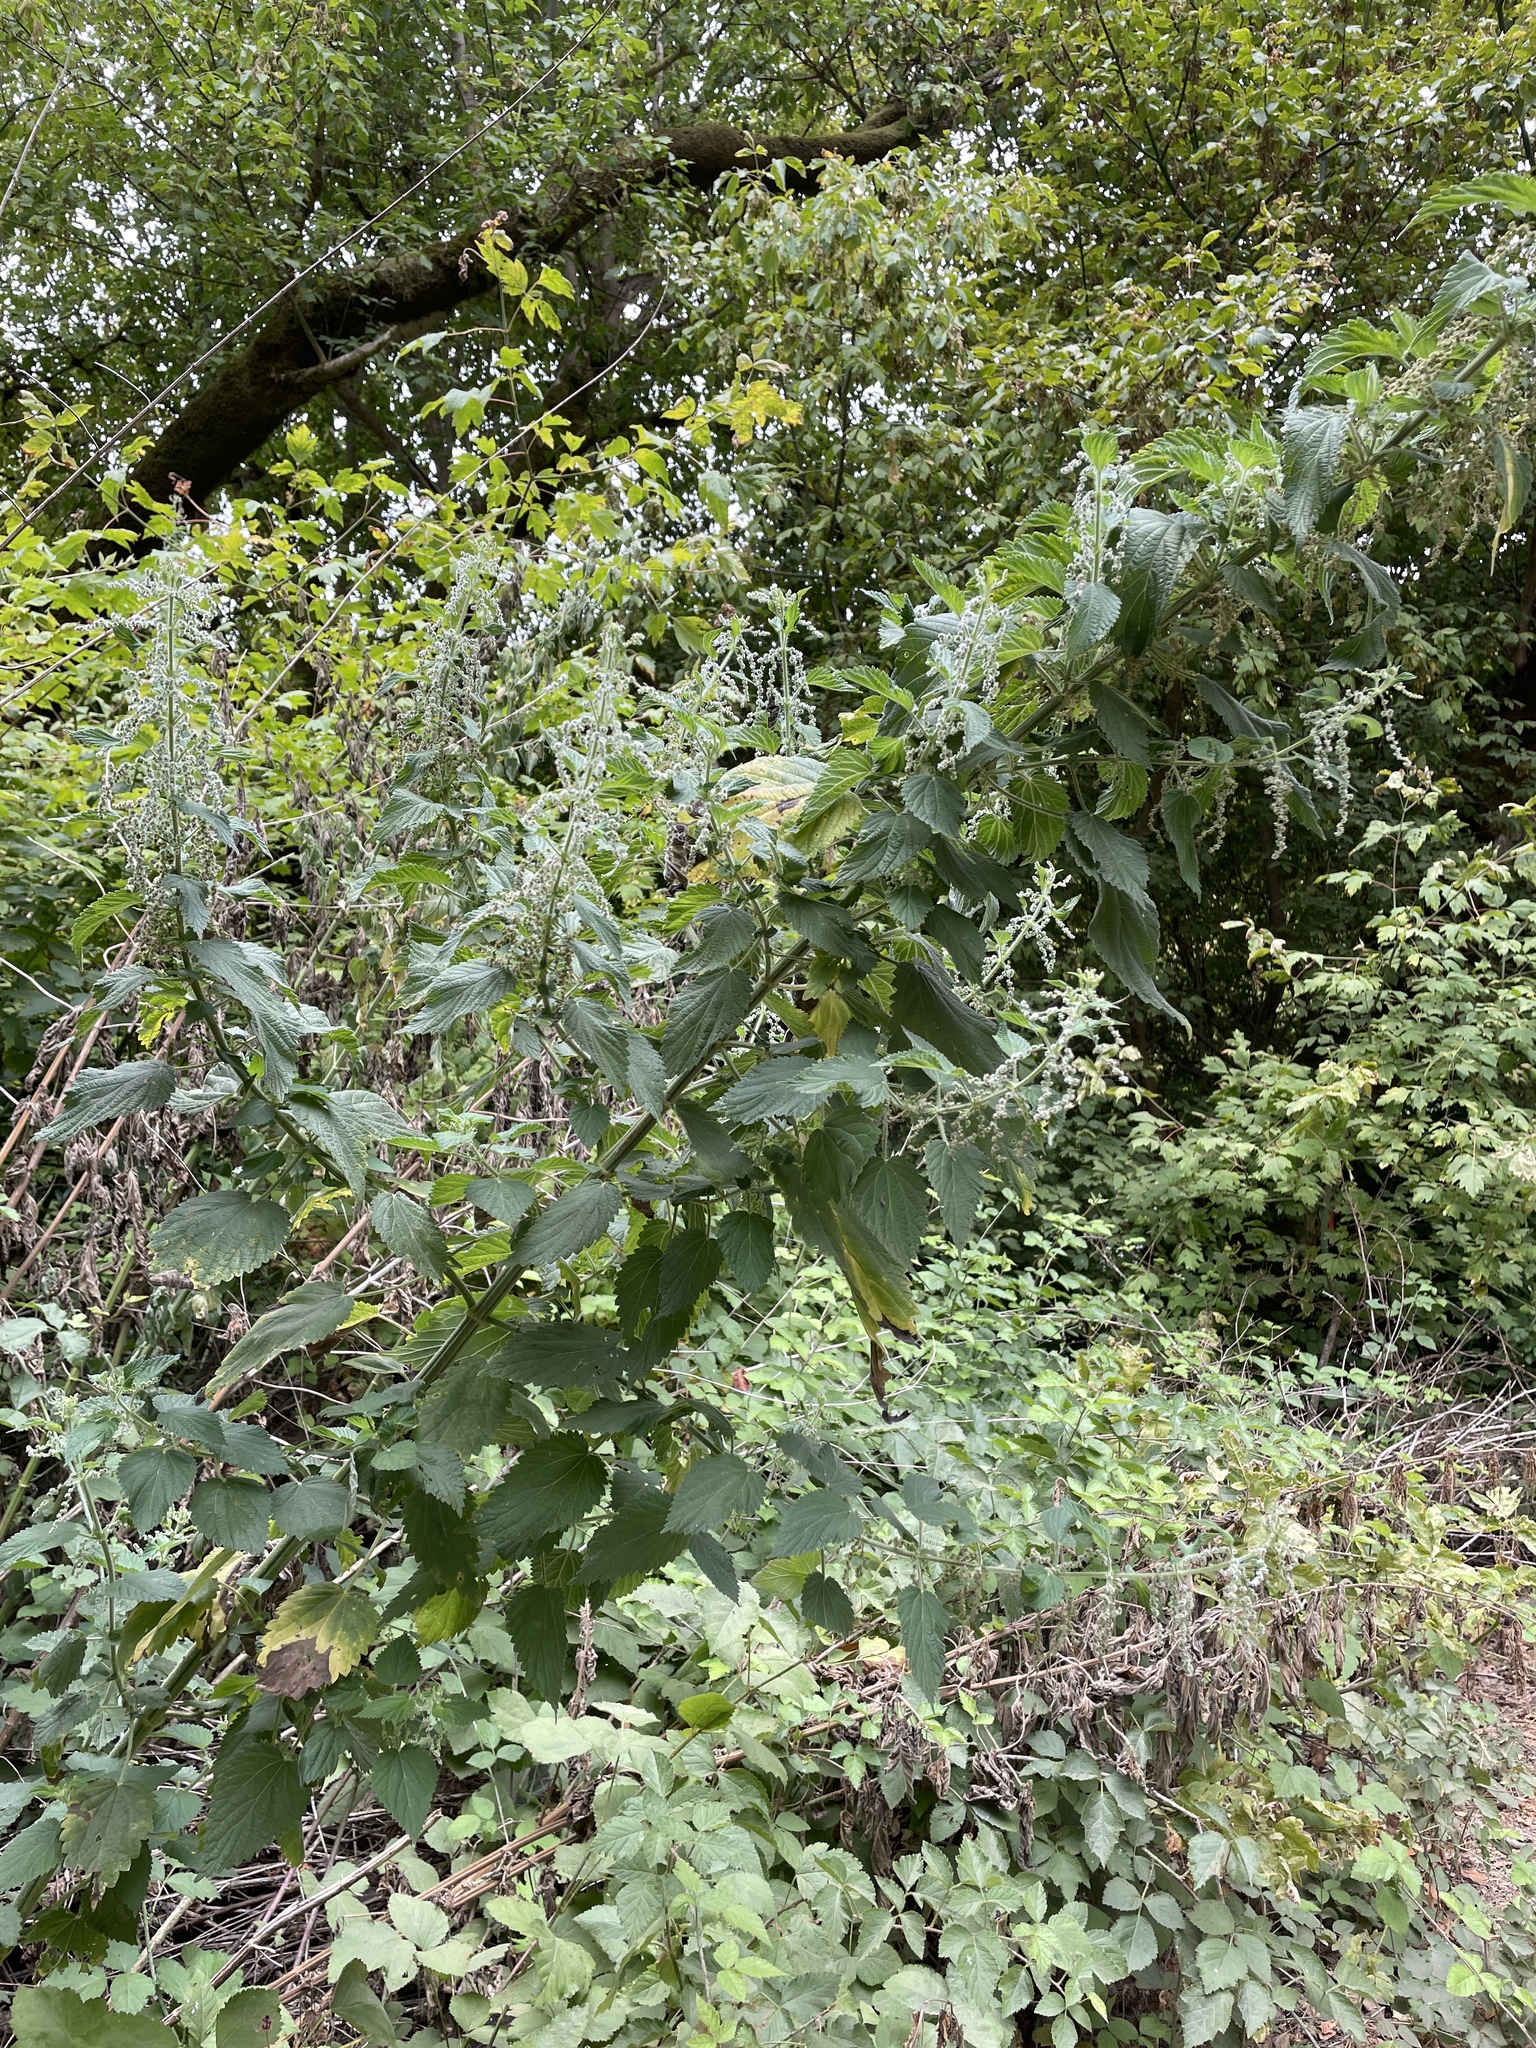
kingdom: Plantae
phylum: Tracheophyta
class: Magnoliopsida
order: Rosales
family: Urticaceae
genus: Urtica
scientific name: Urtica dioica
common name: Common nettle
